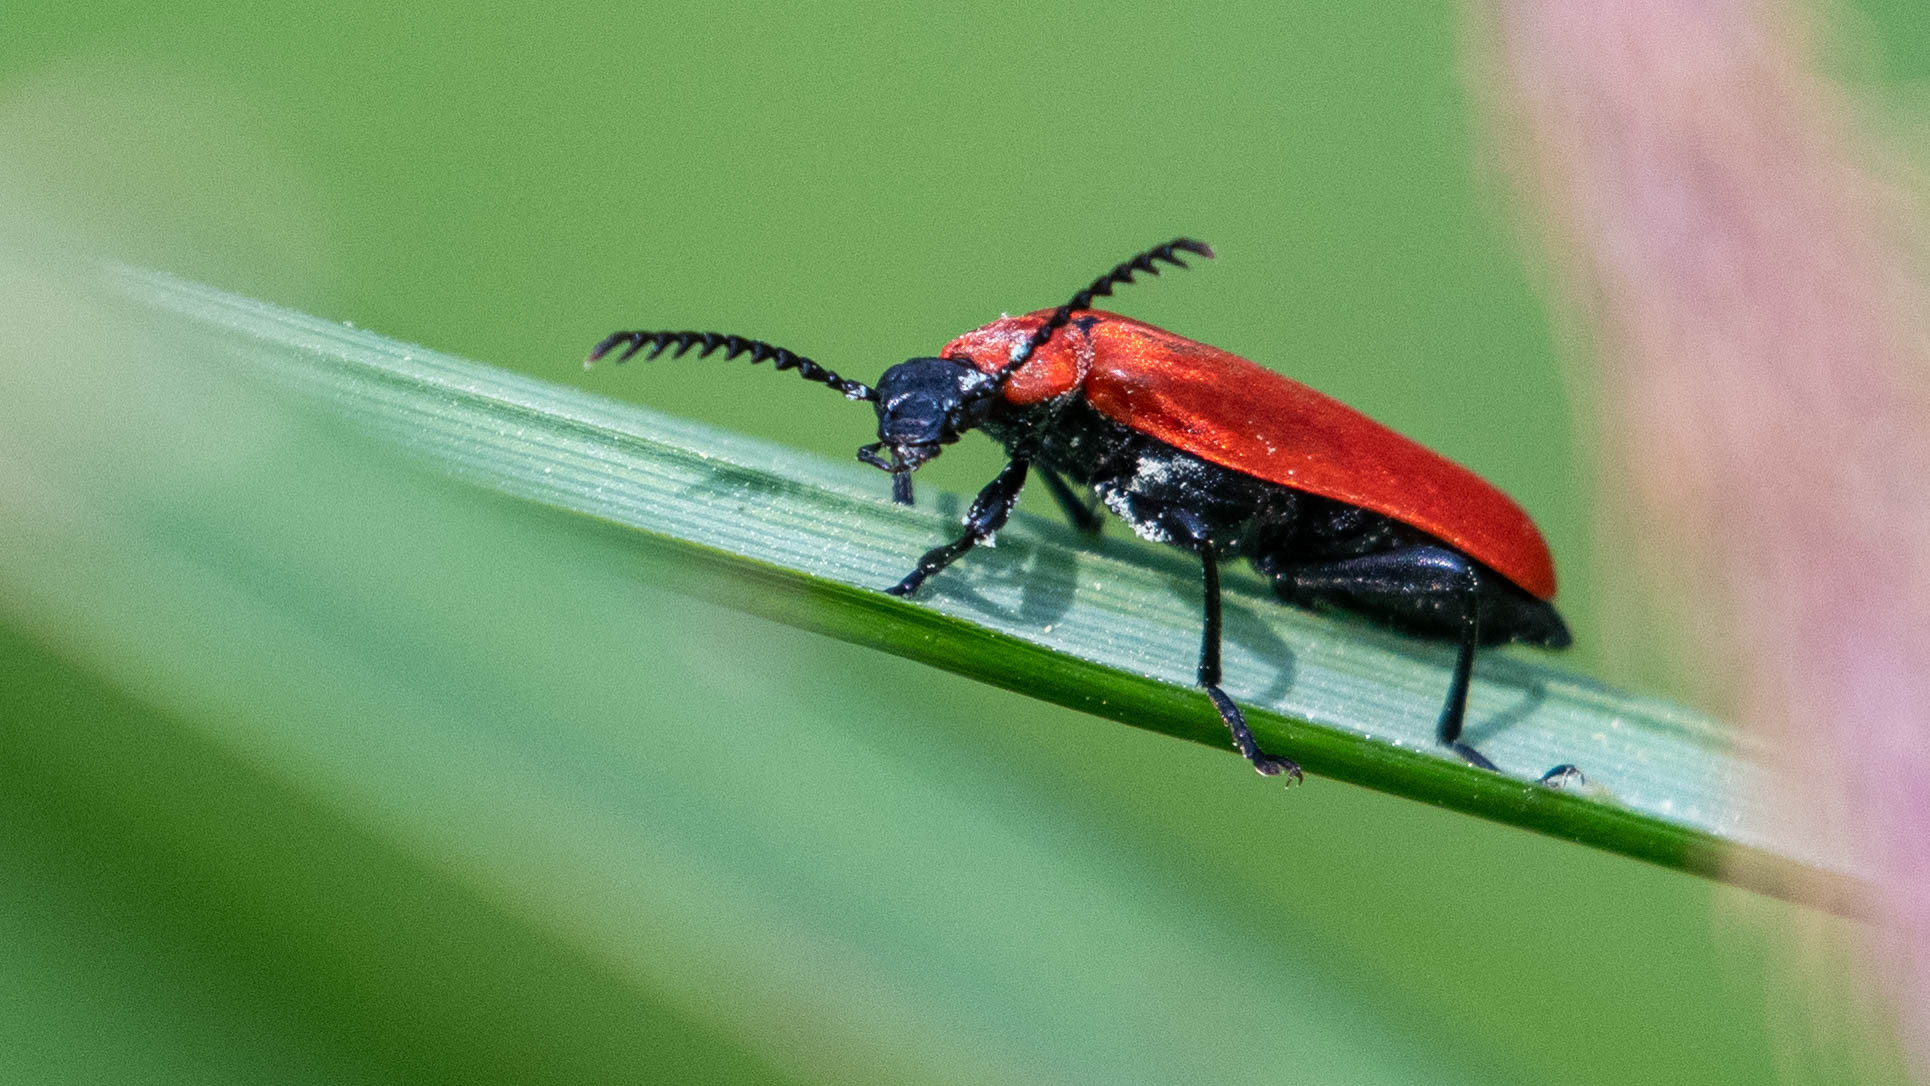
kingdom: Animalia
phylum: Arthropoda
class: Insecta
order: Coleoptera
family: Pyrochroidae
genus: Pyrochroa
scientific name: Pyrochroa coccinea
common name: Black-headed cardinal beetle
